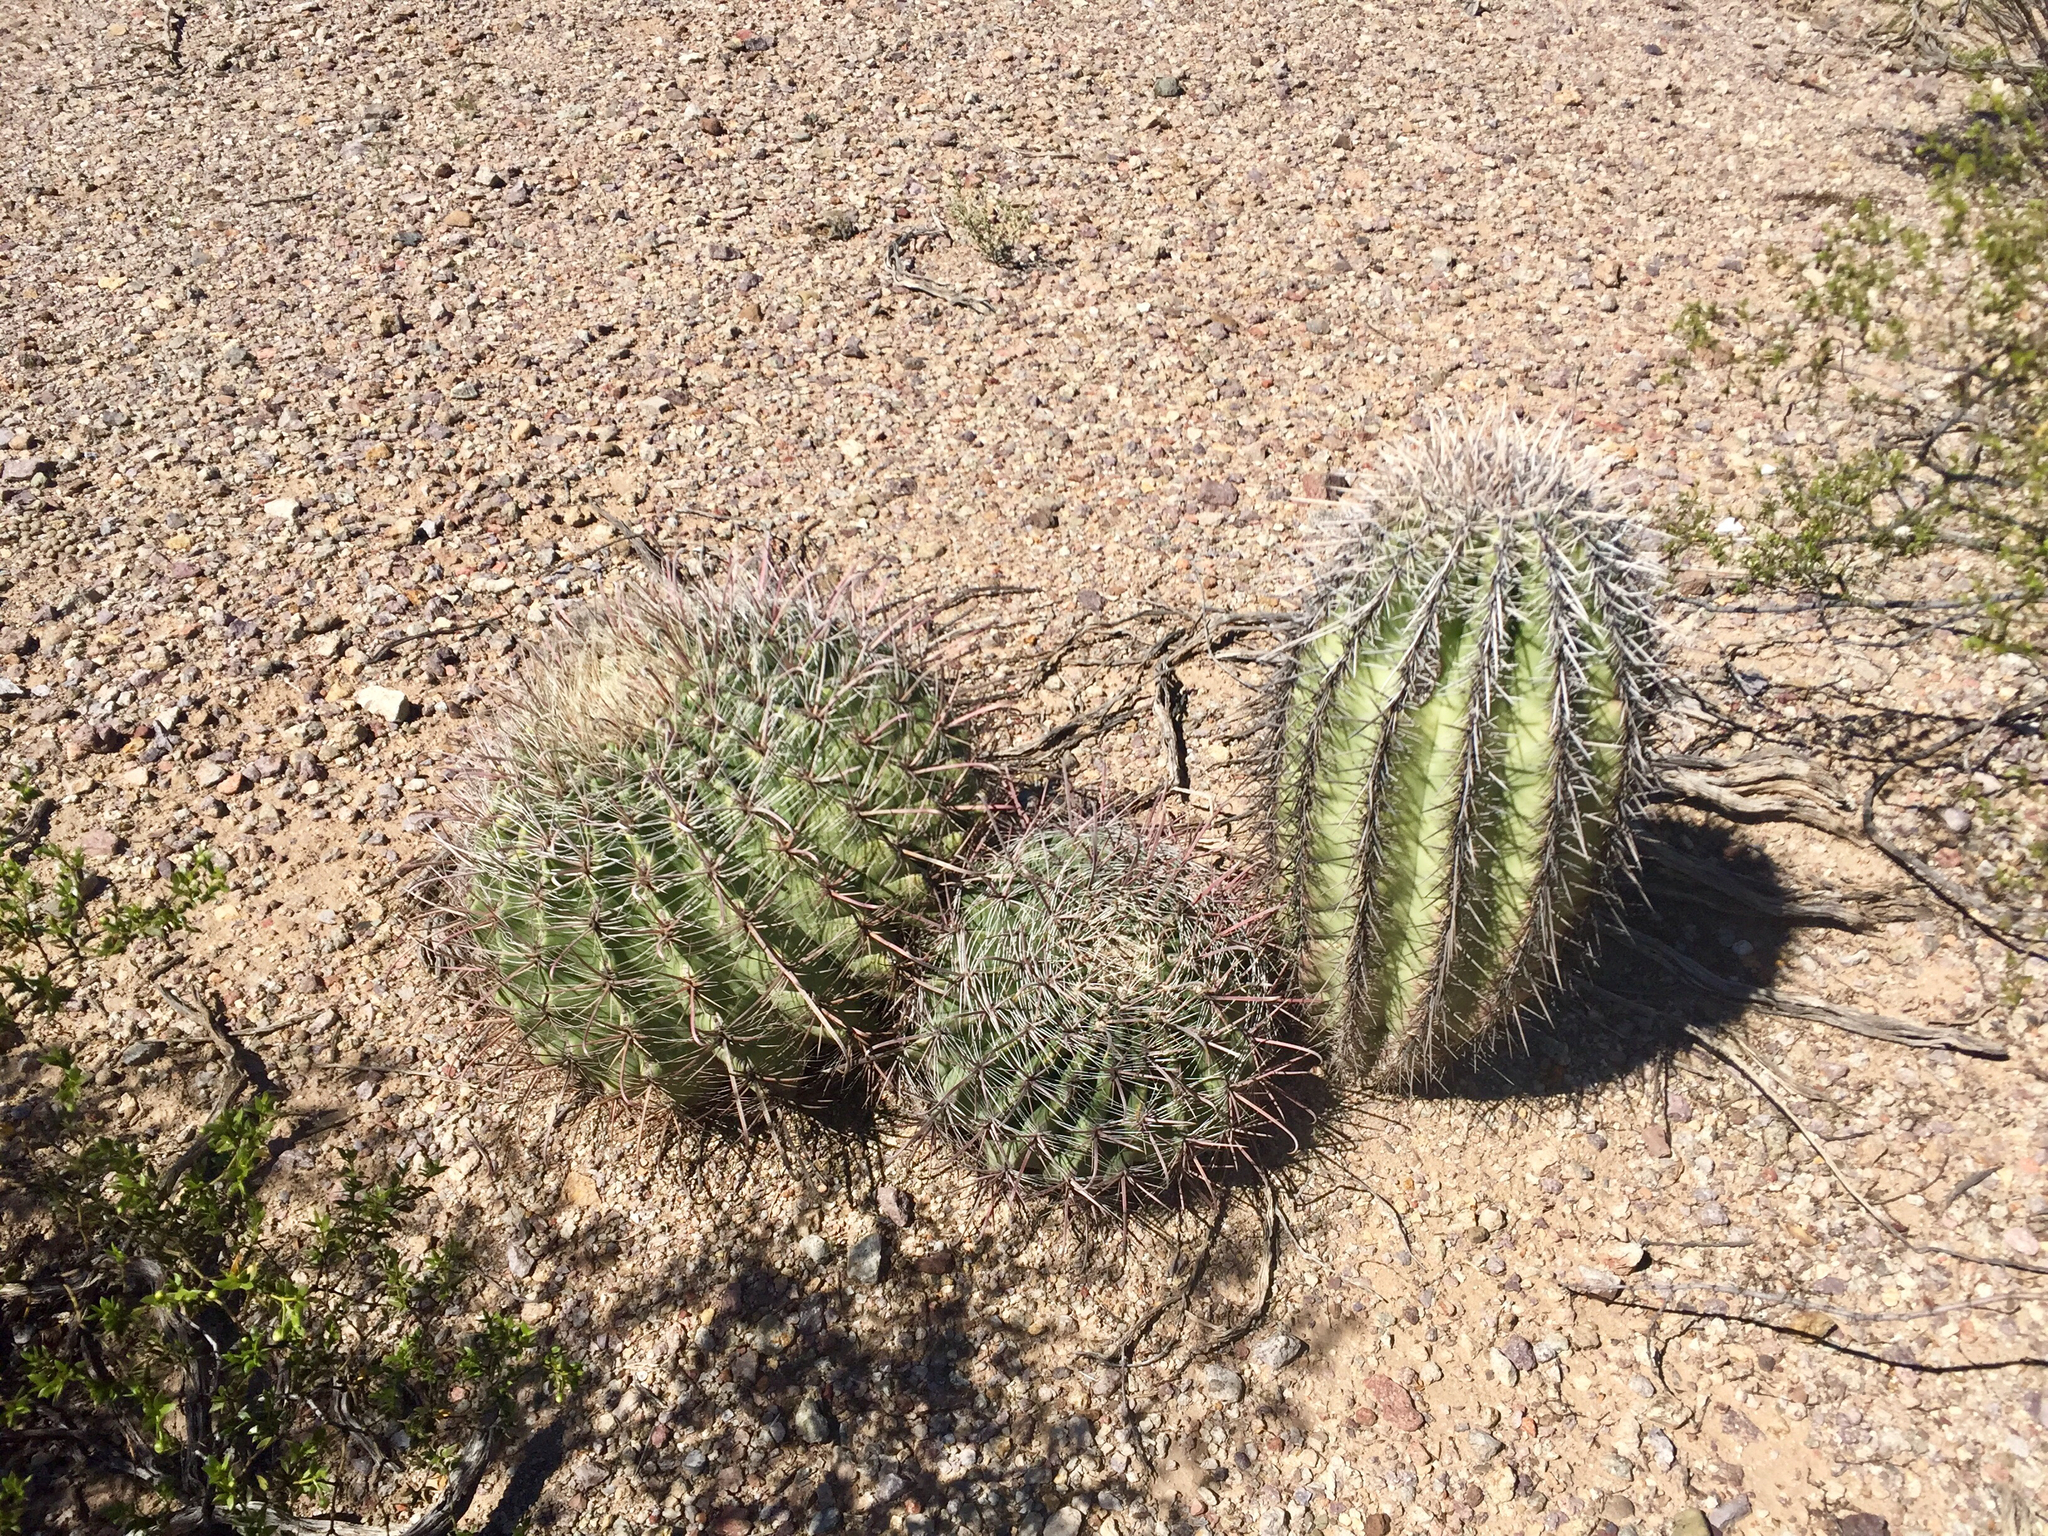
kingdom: Plantae
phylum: Tracheophyta
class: Magnoliopsida
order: Caryophyllales
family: Cactaceae
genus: Ferocactus
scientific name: Ferocactus wislizeni
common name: Candy barrel cactus
